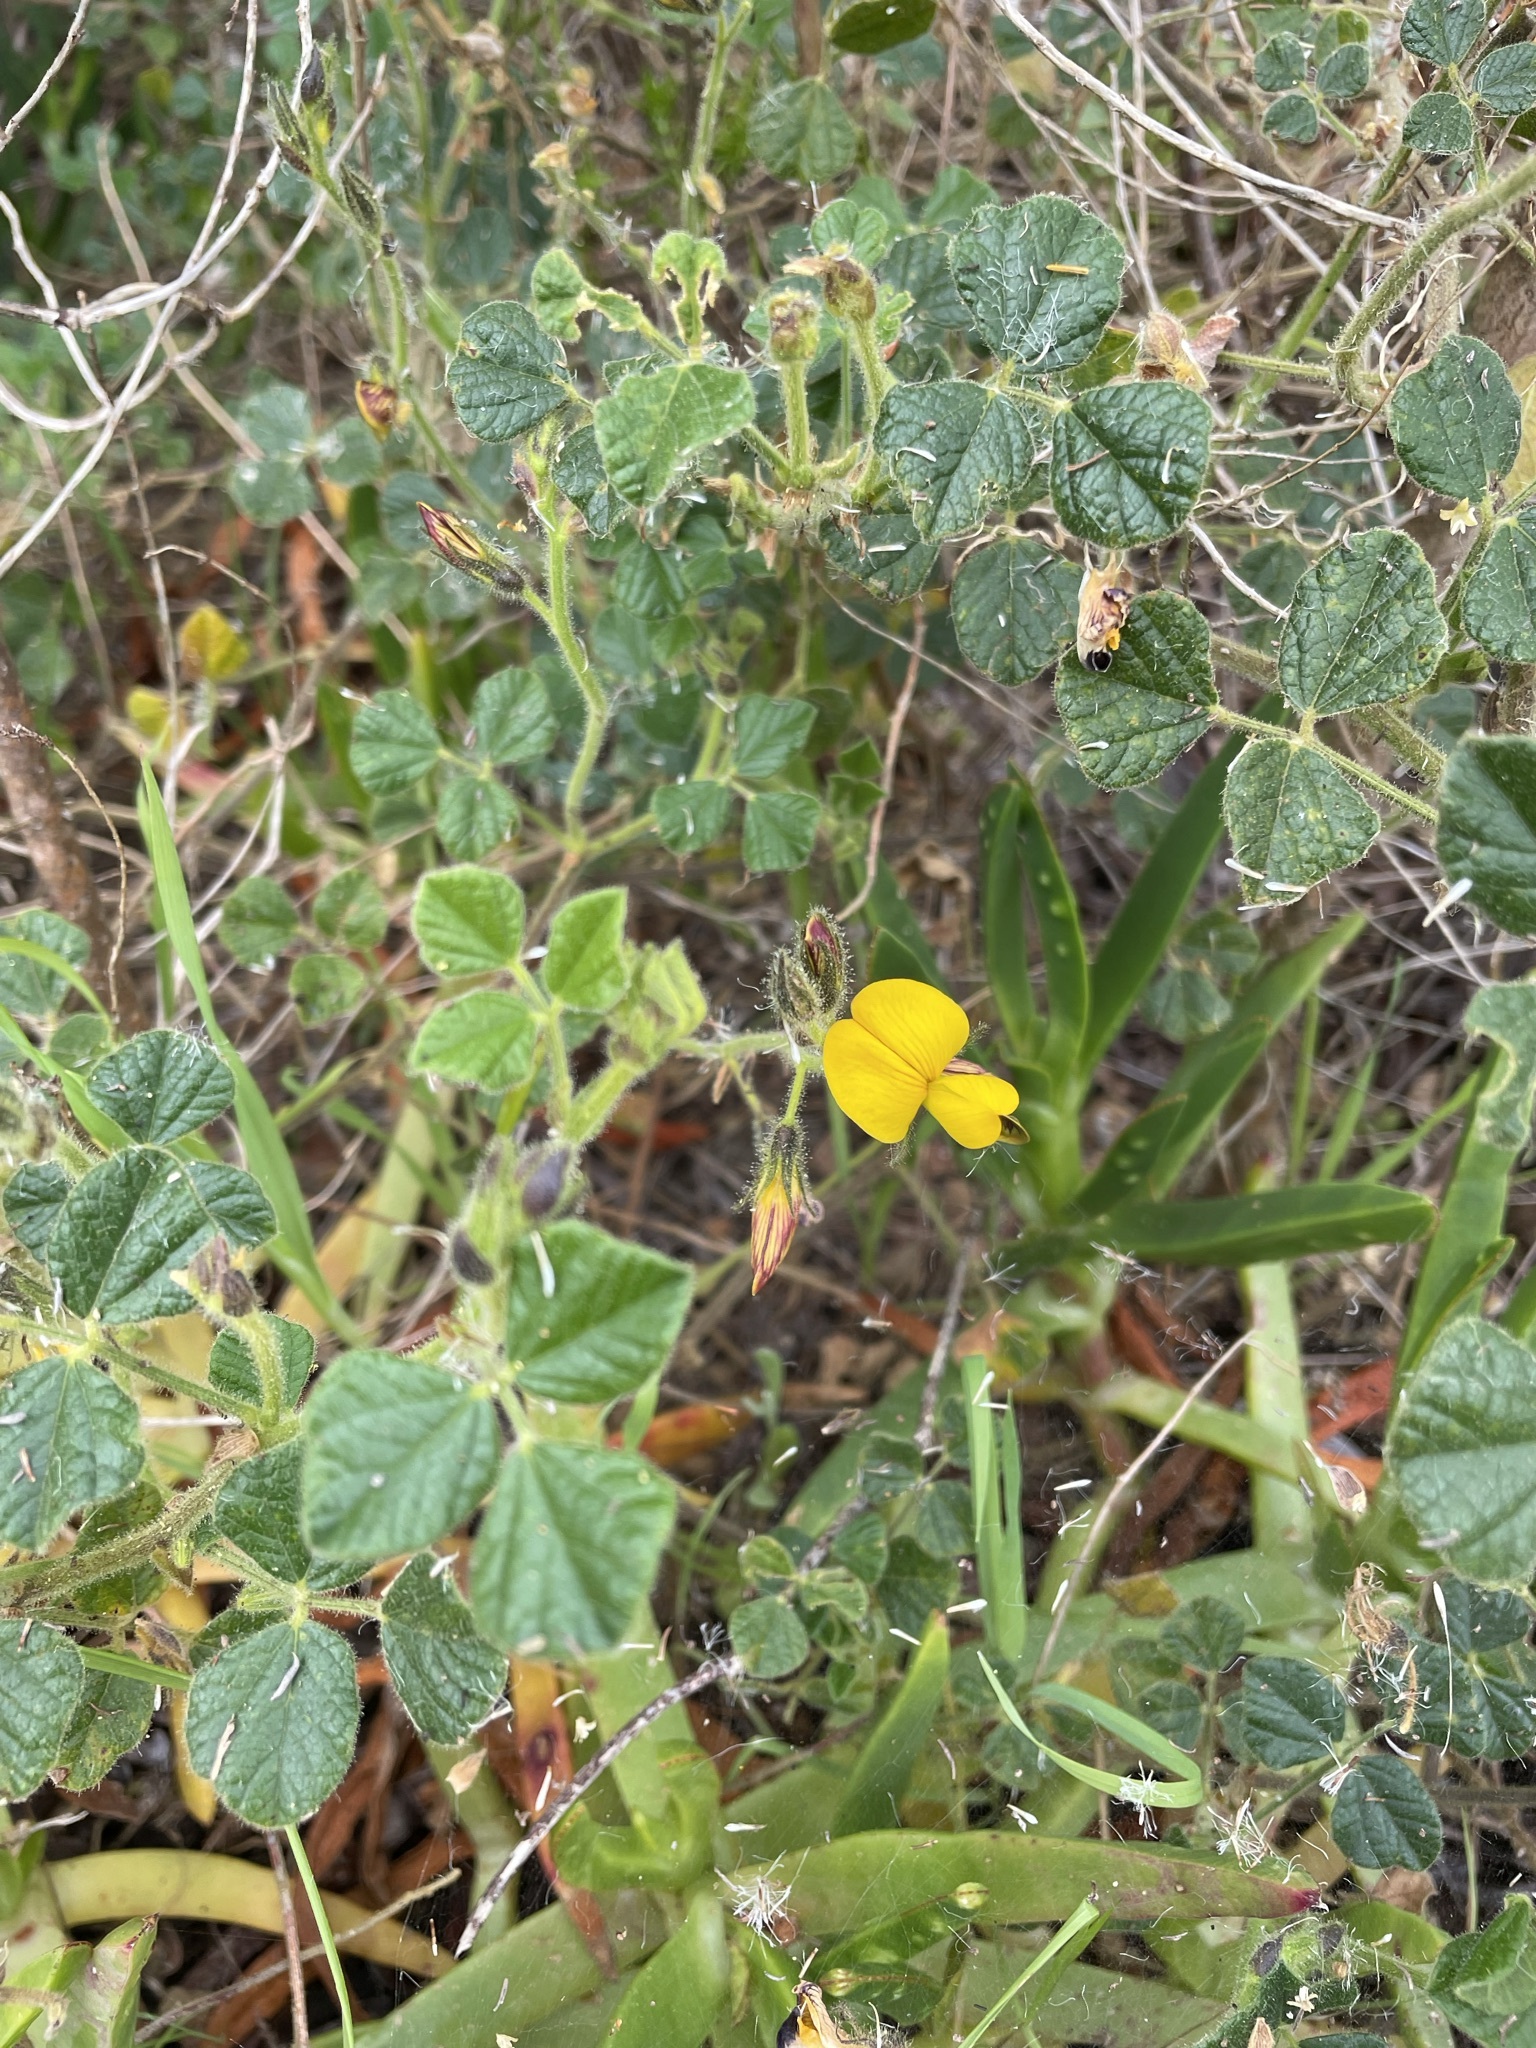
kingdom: Plantae
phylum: Tracheophyta
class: Magnoliopsida
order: Fabales
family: Fabaceae
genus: Bolusafra
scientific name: Bolusafra bituminosa
